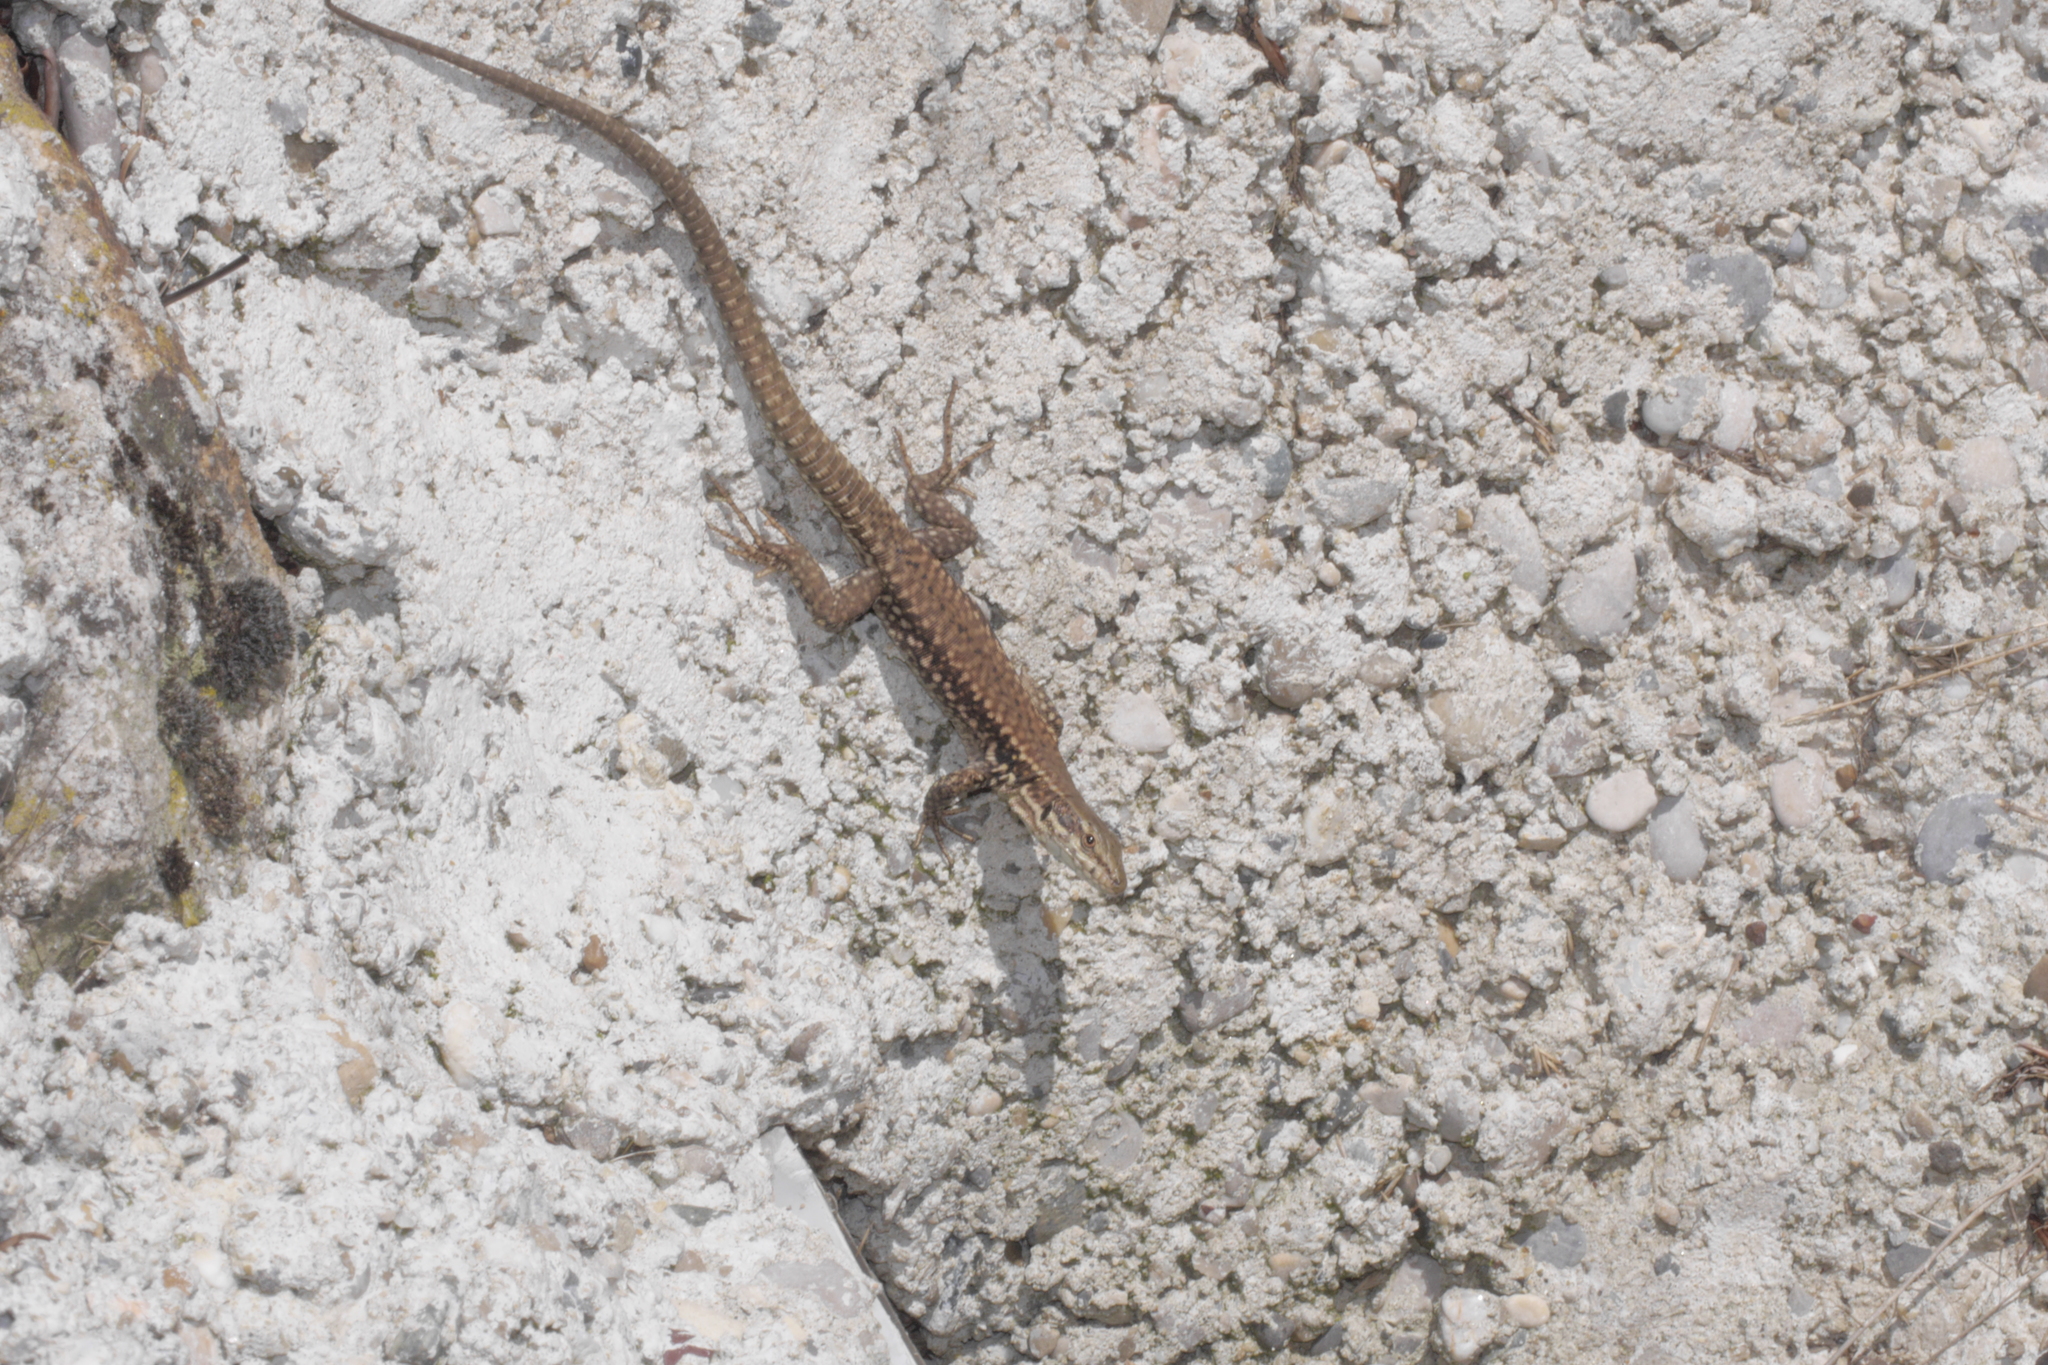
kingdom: Animalia
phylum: Chordata
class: Squamata
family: Lacertidae
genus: Podarcis
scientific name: Podarcis muralis
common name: Common wall lizard
